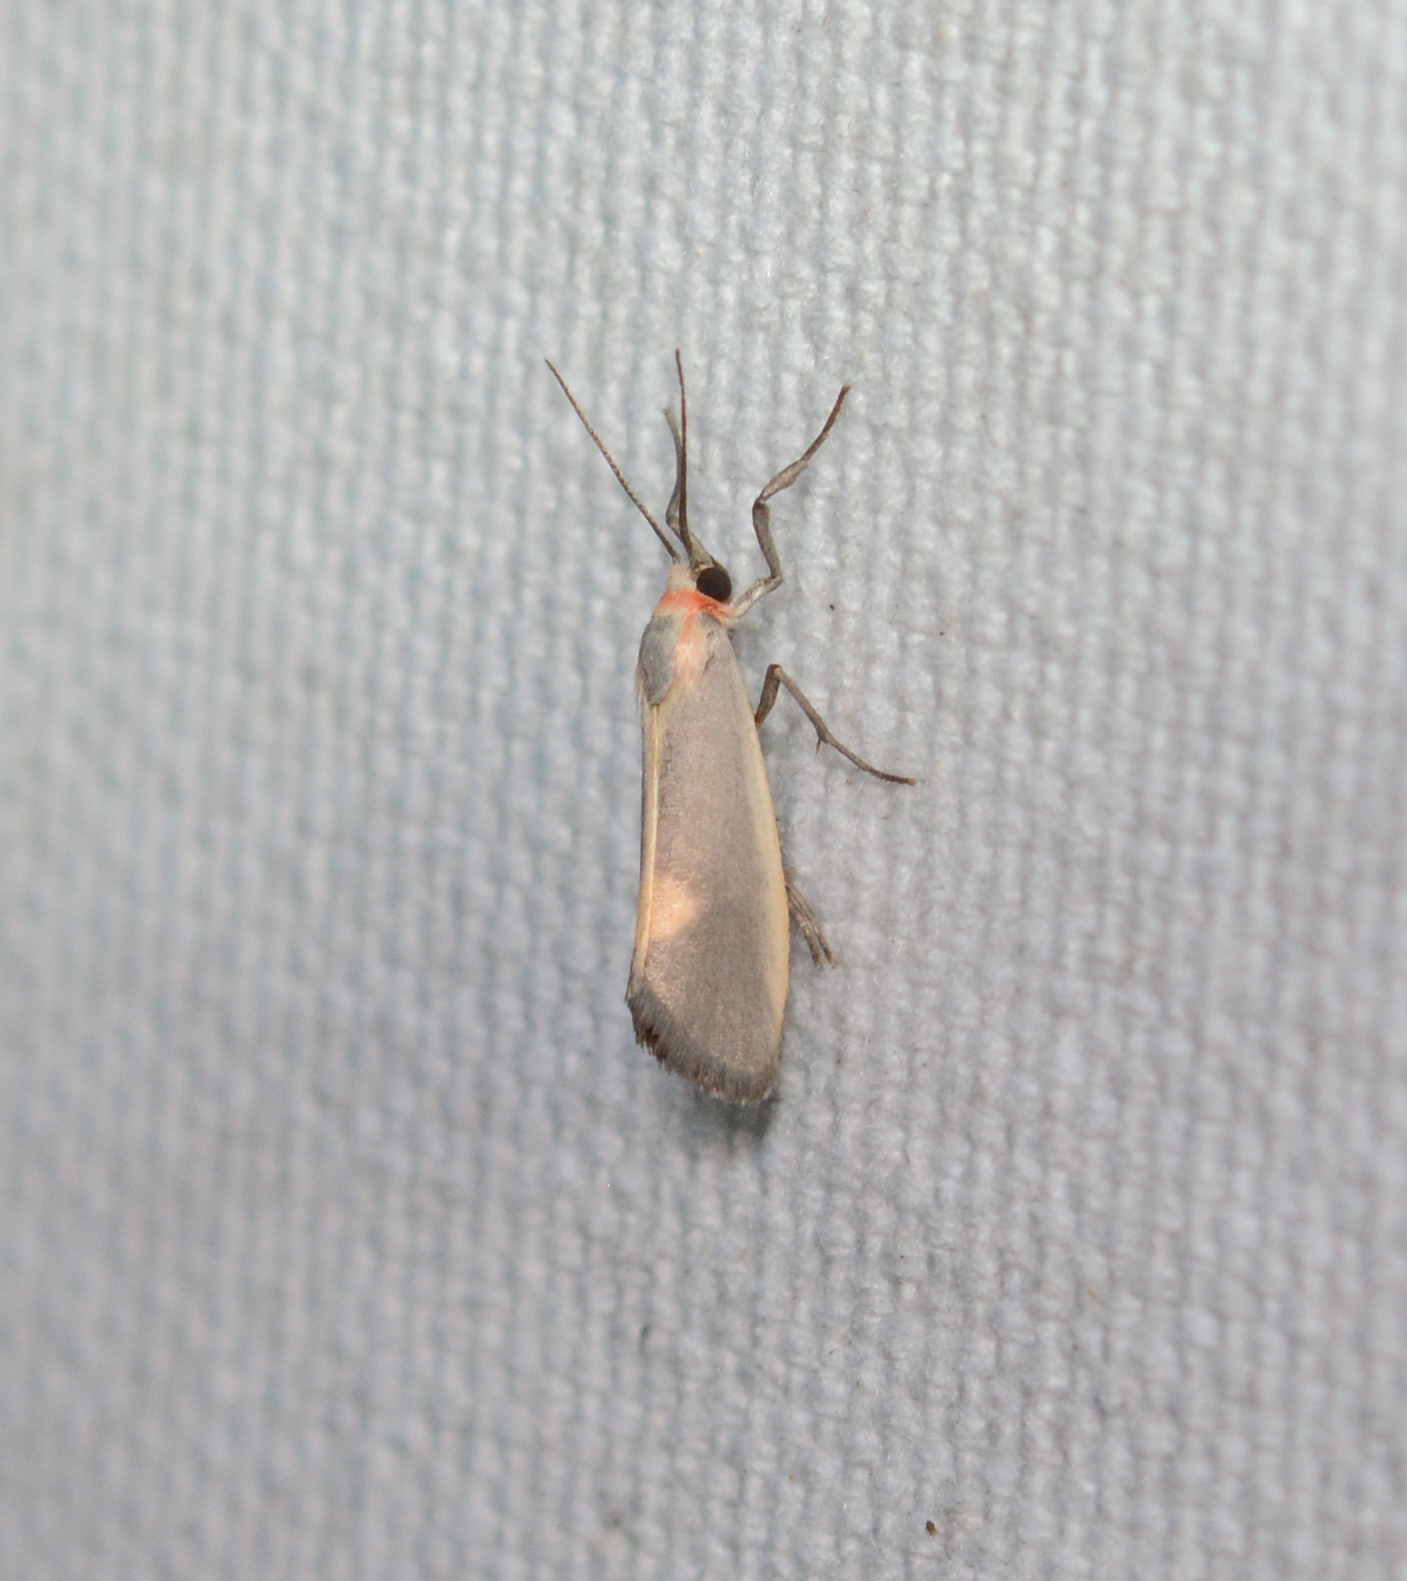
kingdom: Animalia
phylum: Arthropoda
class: Insecta
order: Lepidoptera
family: Erebidae
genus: Cisthene
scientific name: Cisthene plumbea
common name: Lead colored lichen moth
